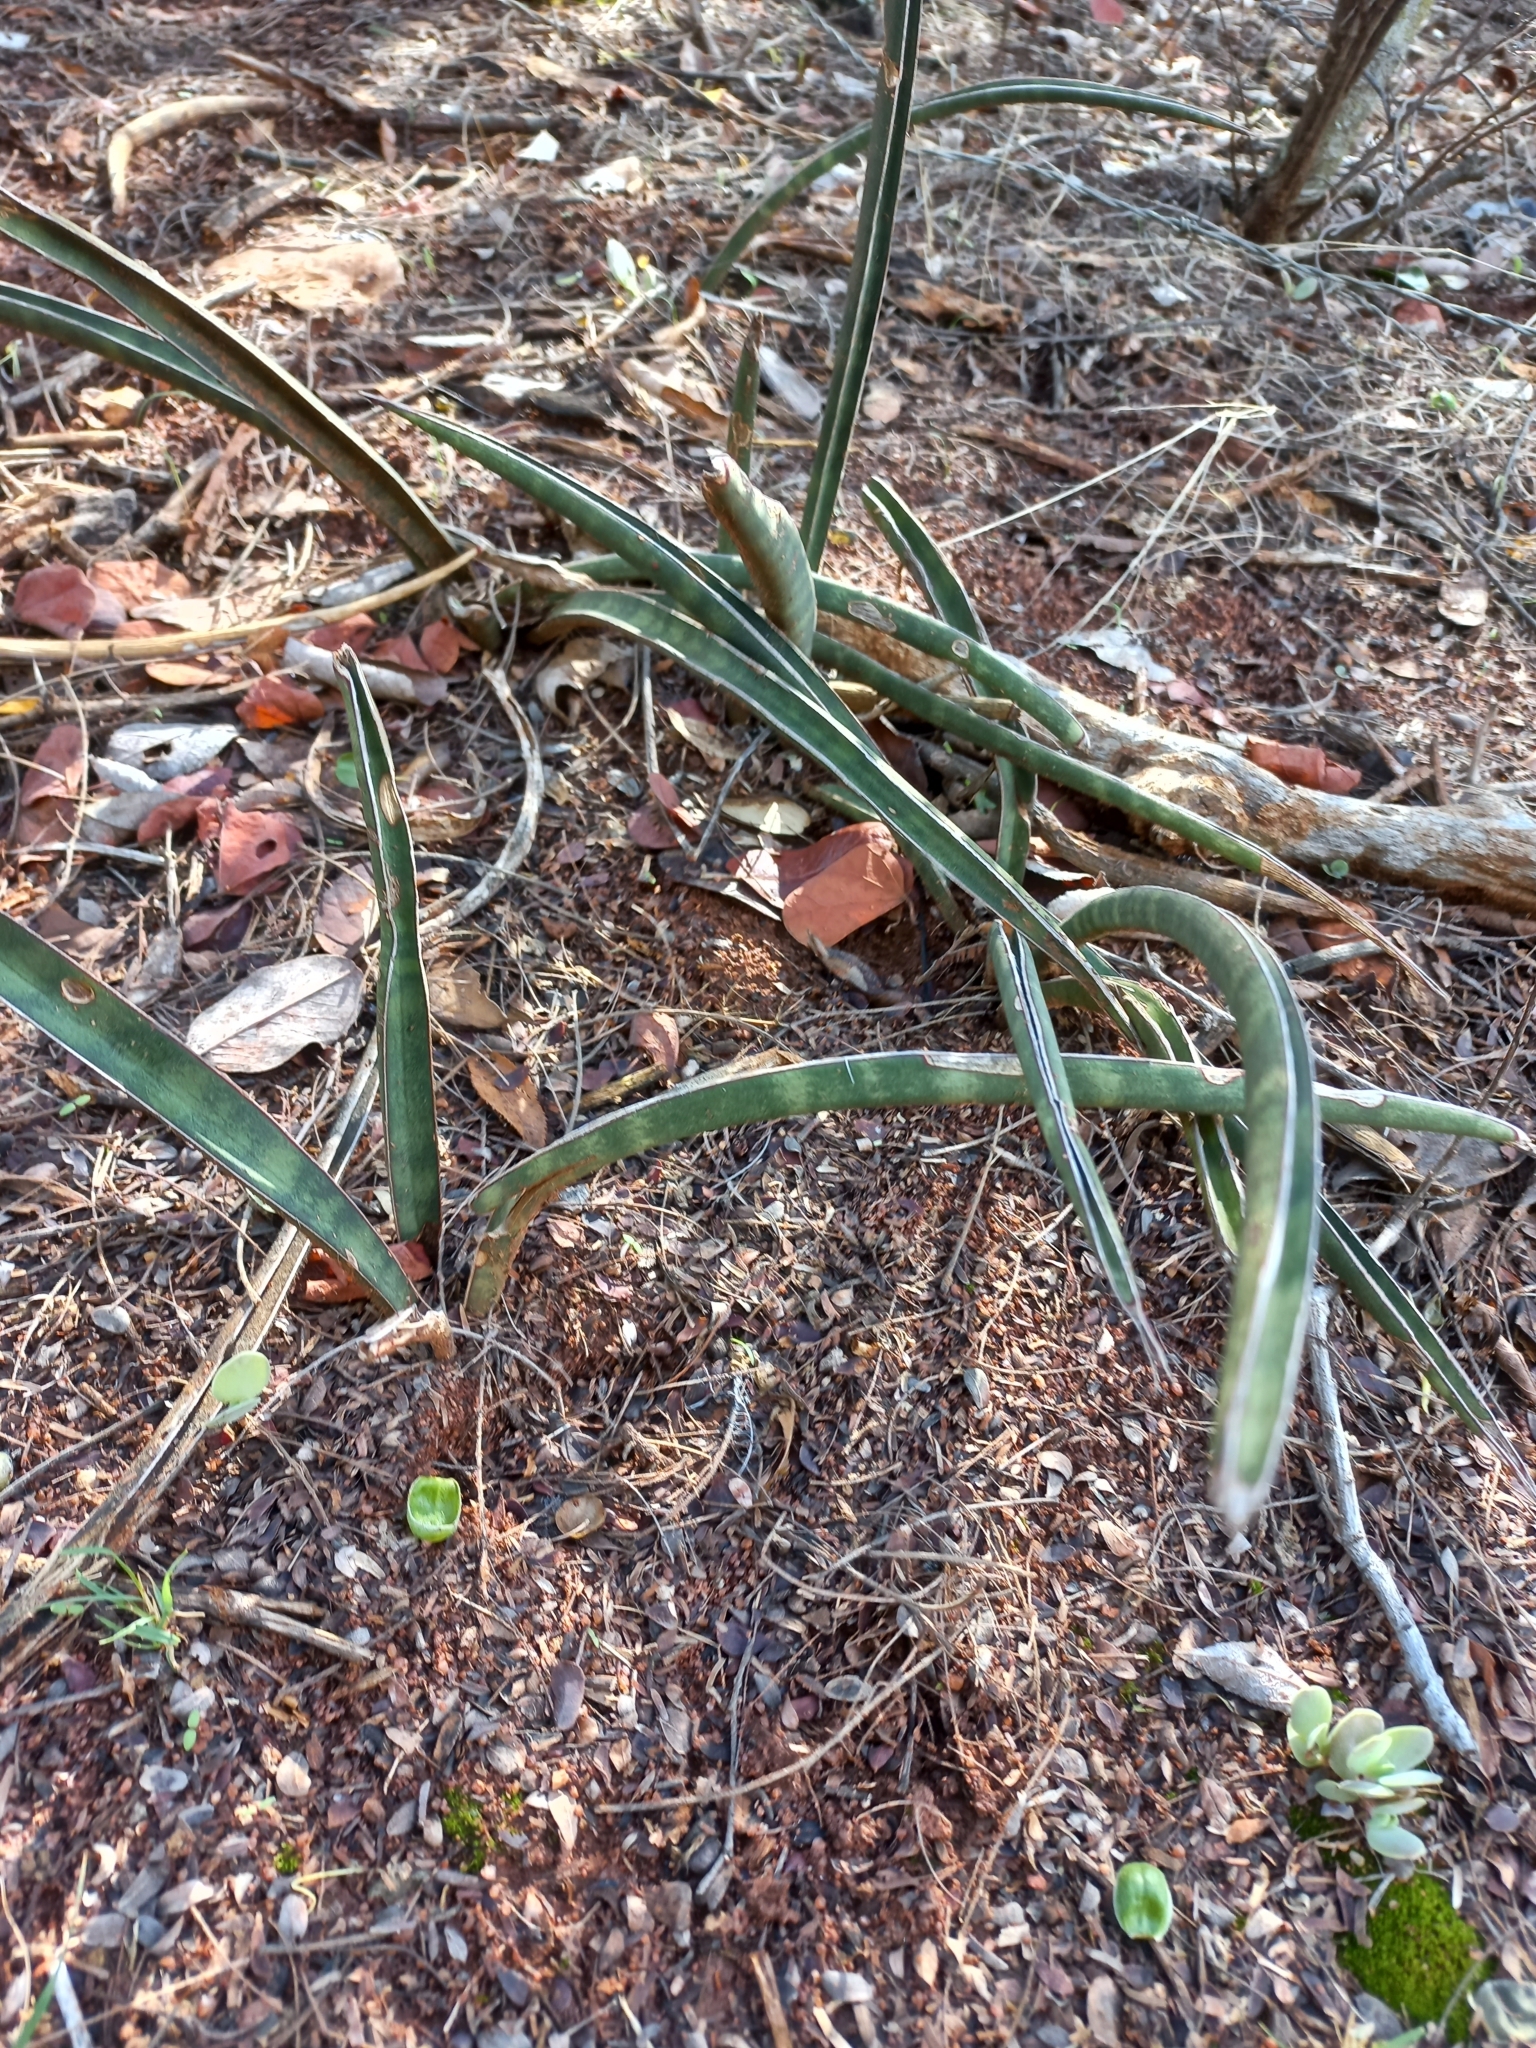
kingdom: Plantae
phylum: Tracheophyta
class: Liliopsida
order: Asparagales
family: Asparagaceae
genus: Dracaena
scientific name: Dracaena aethiopica
